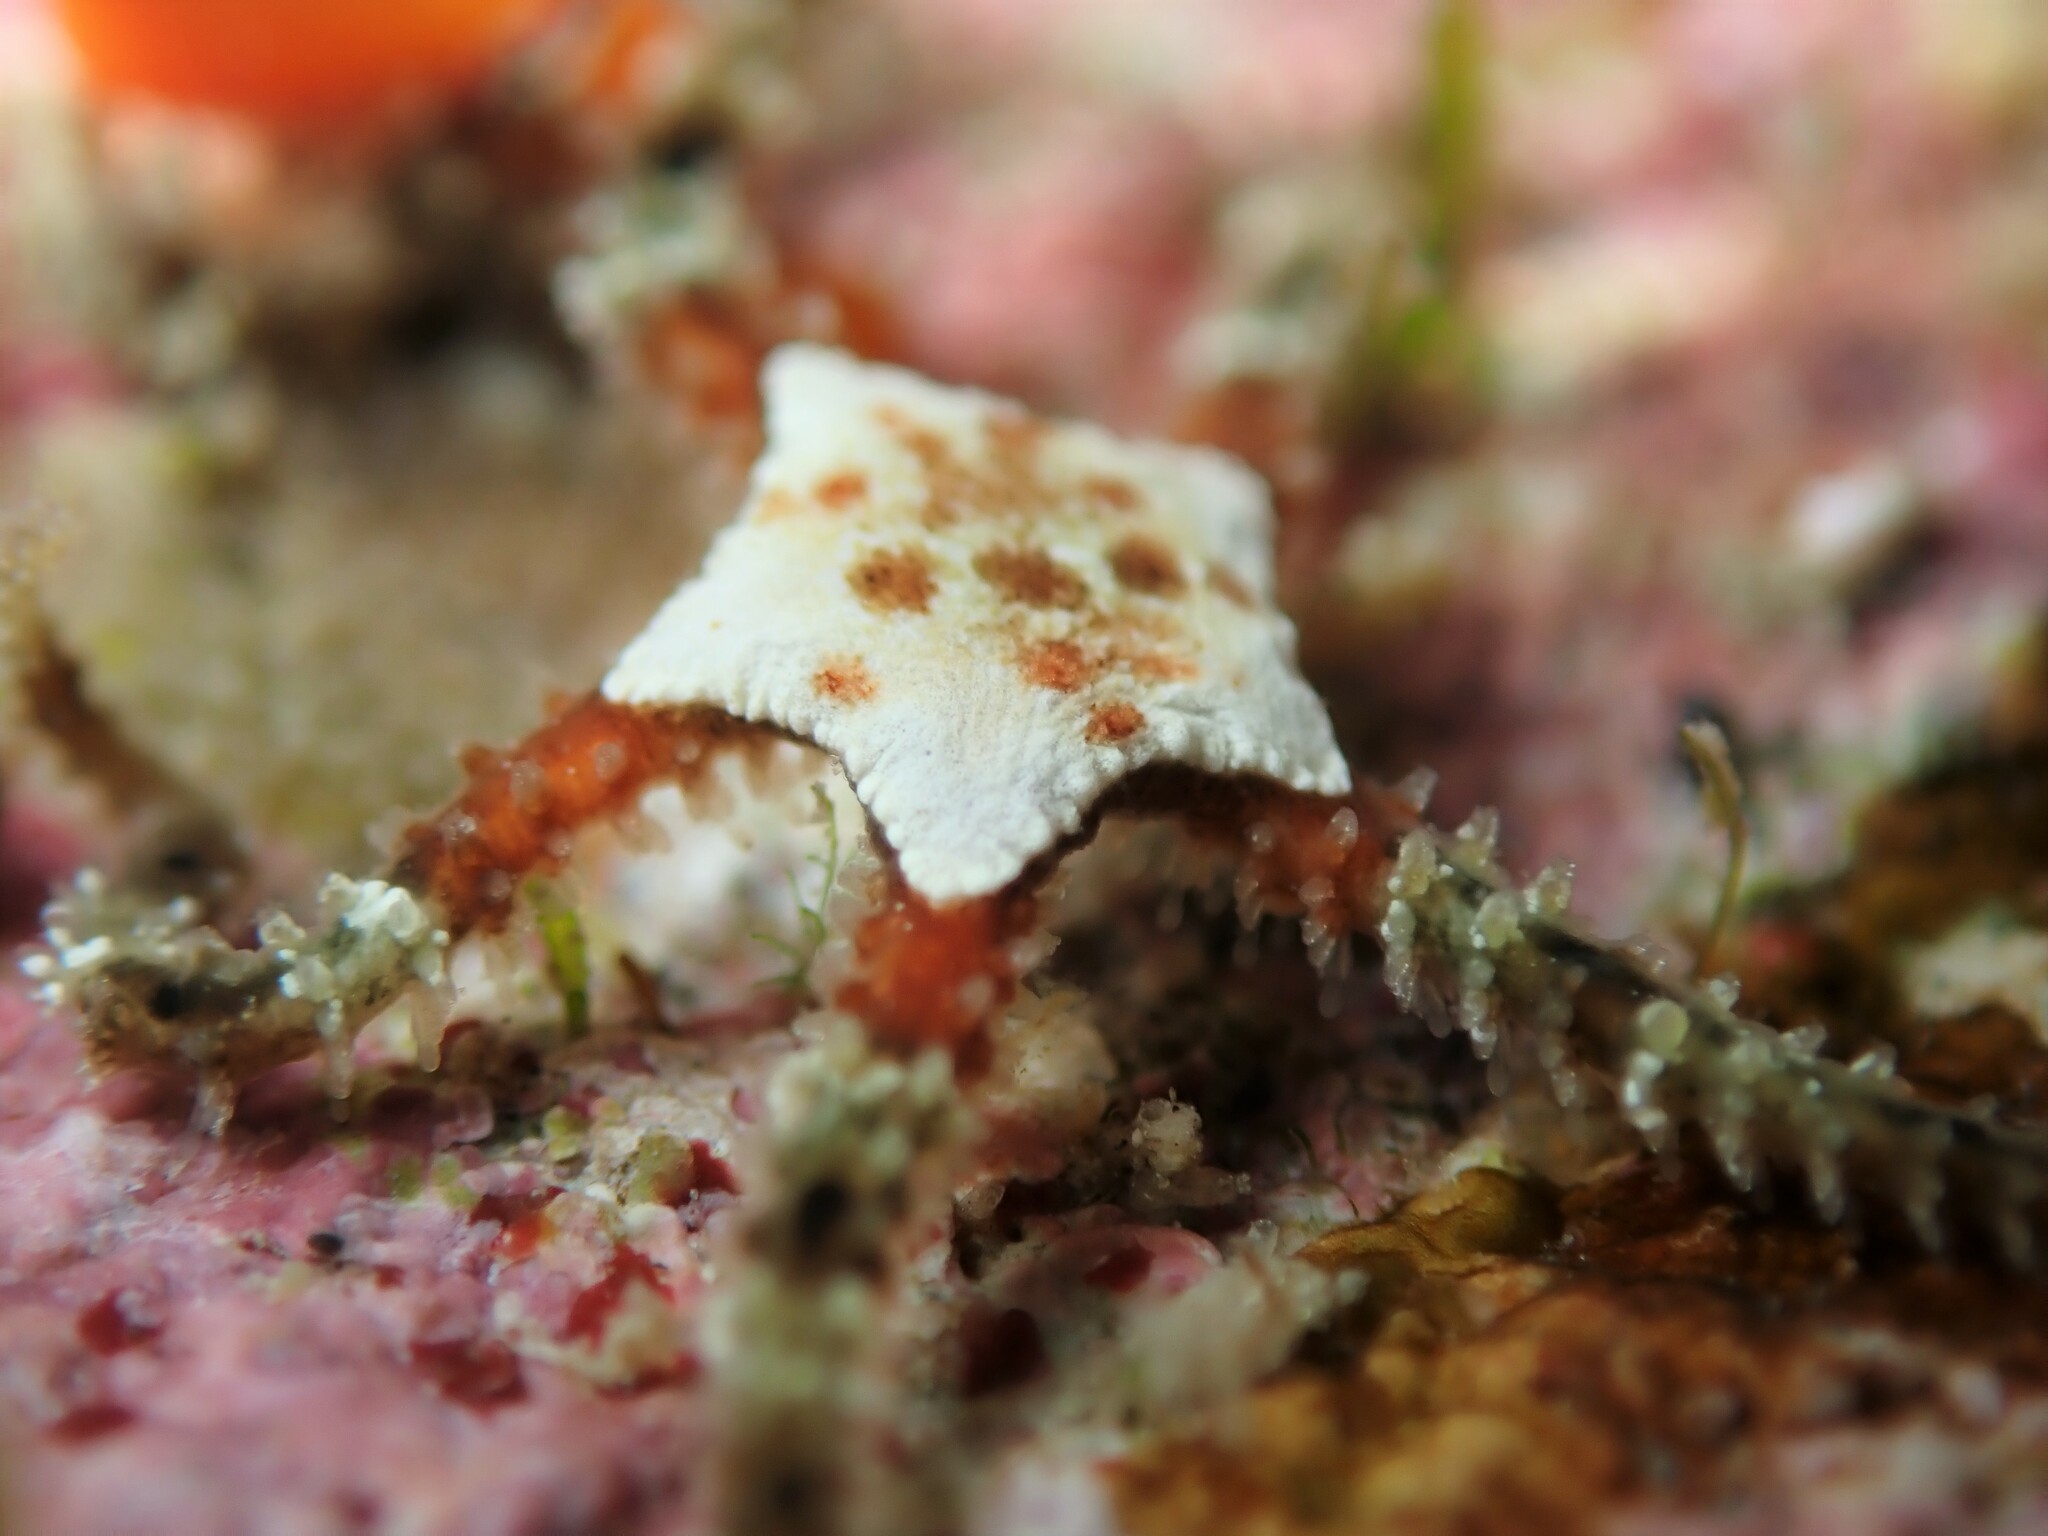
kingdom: Animalia
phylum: Echinodermata
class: Ophiuroidea
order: Ophiacanthida
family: Ophiomyxidae
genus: Ophiomyxa
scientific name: Ophiomyxa brevirima
